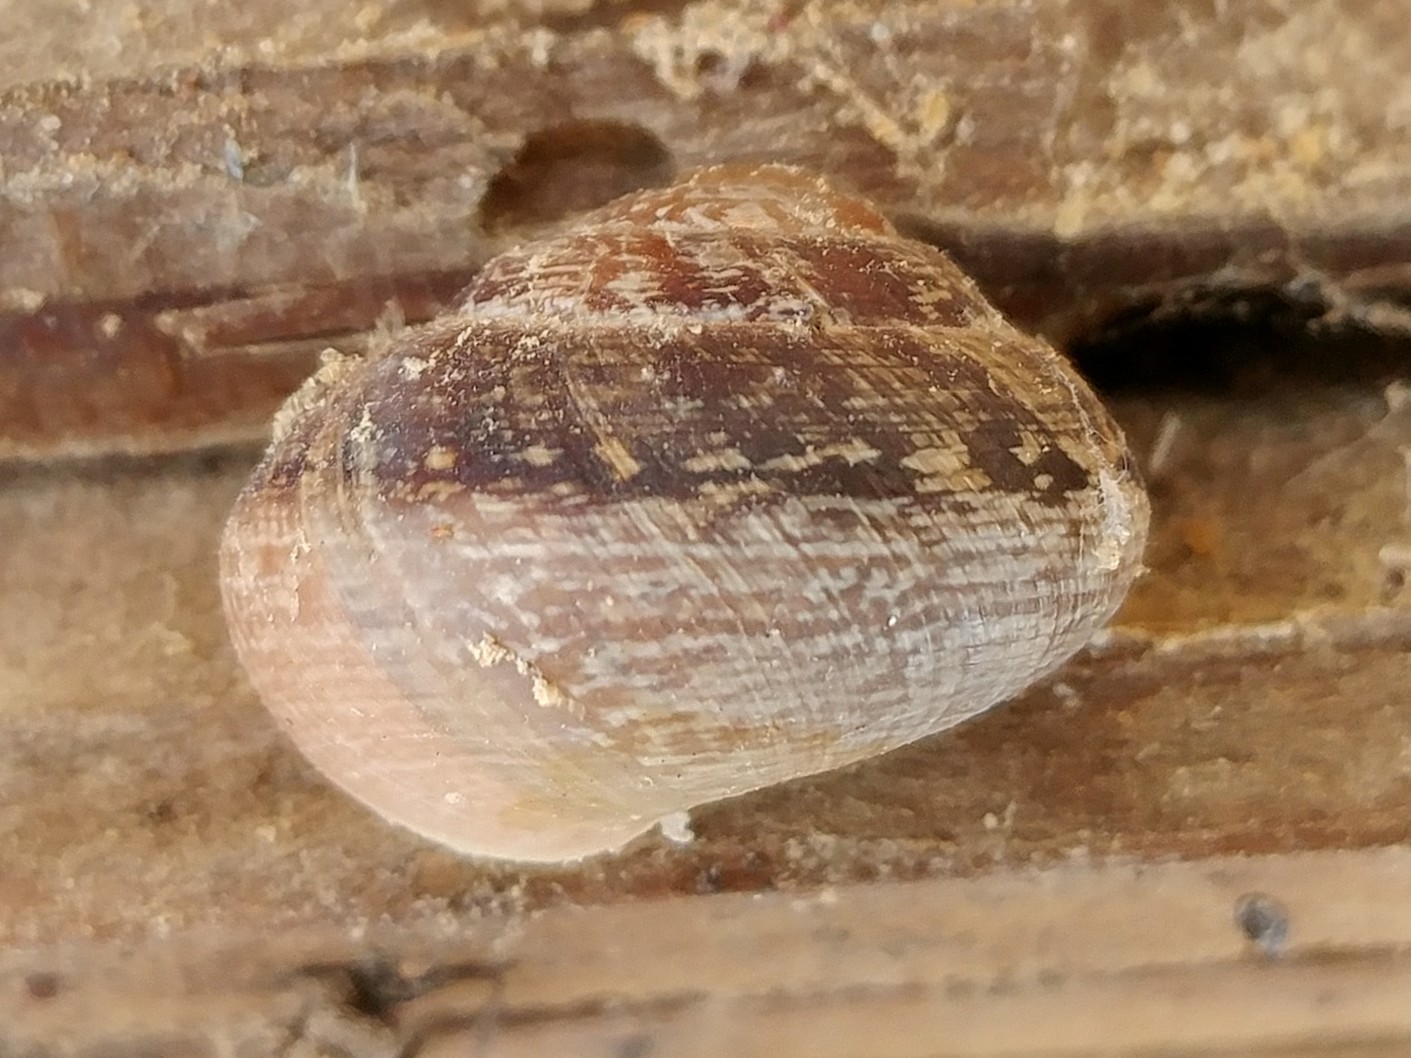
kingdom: Animalia
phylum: Mollusca
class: Gastropoda
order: Stylommatophora
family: Xanthonychidae
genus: Xerarionta
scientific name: Xerarionta tryoni
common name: Bicolor cactus snail
